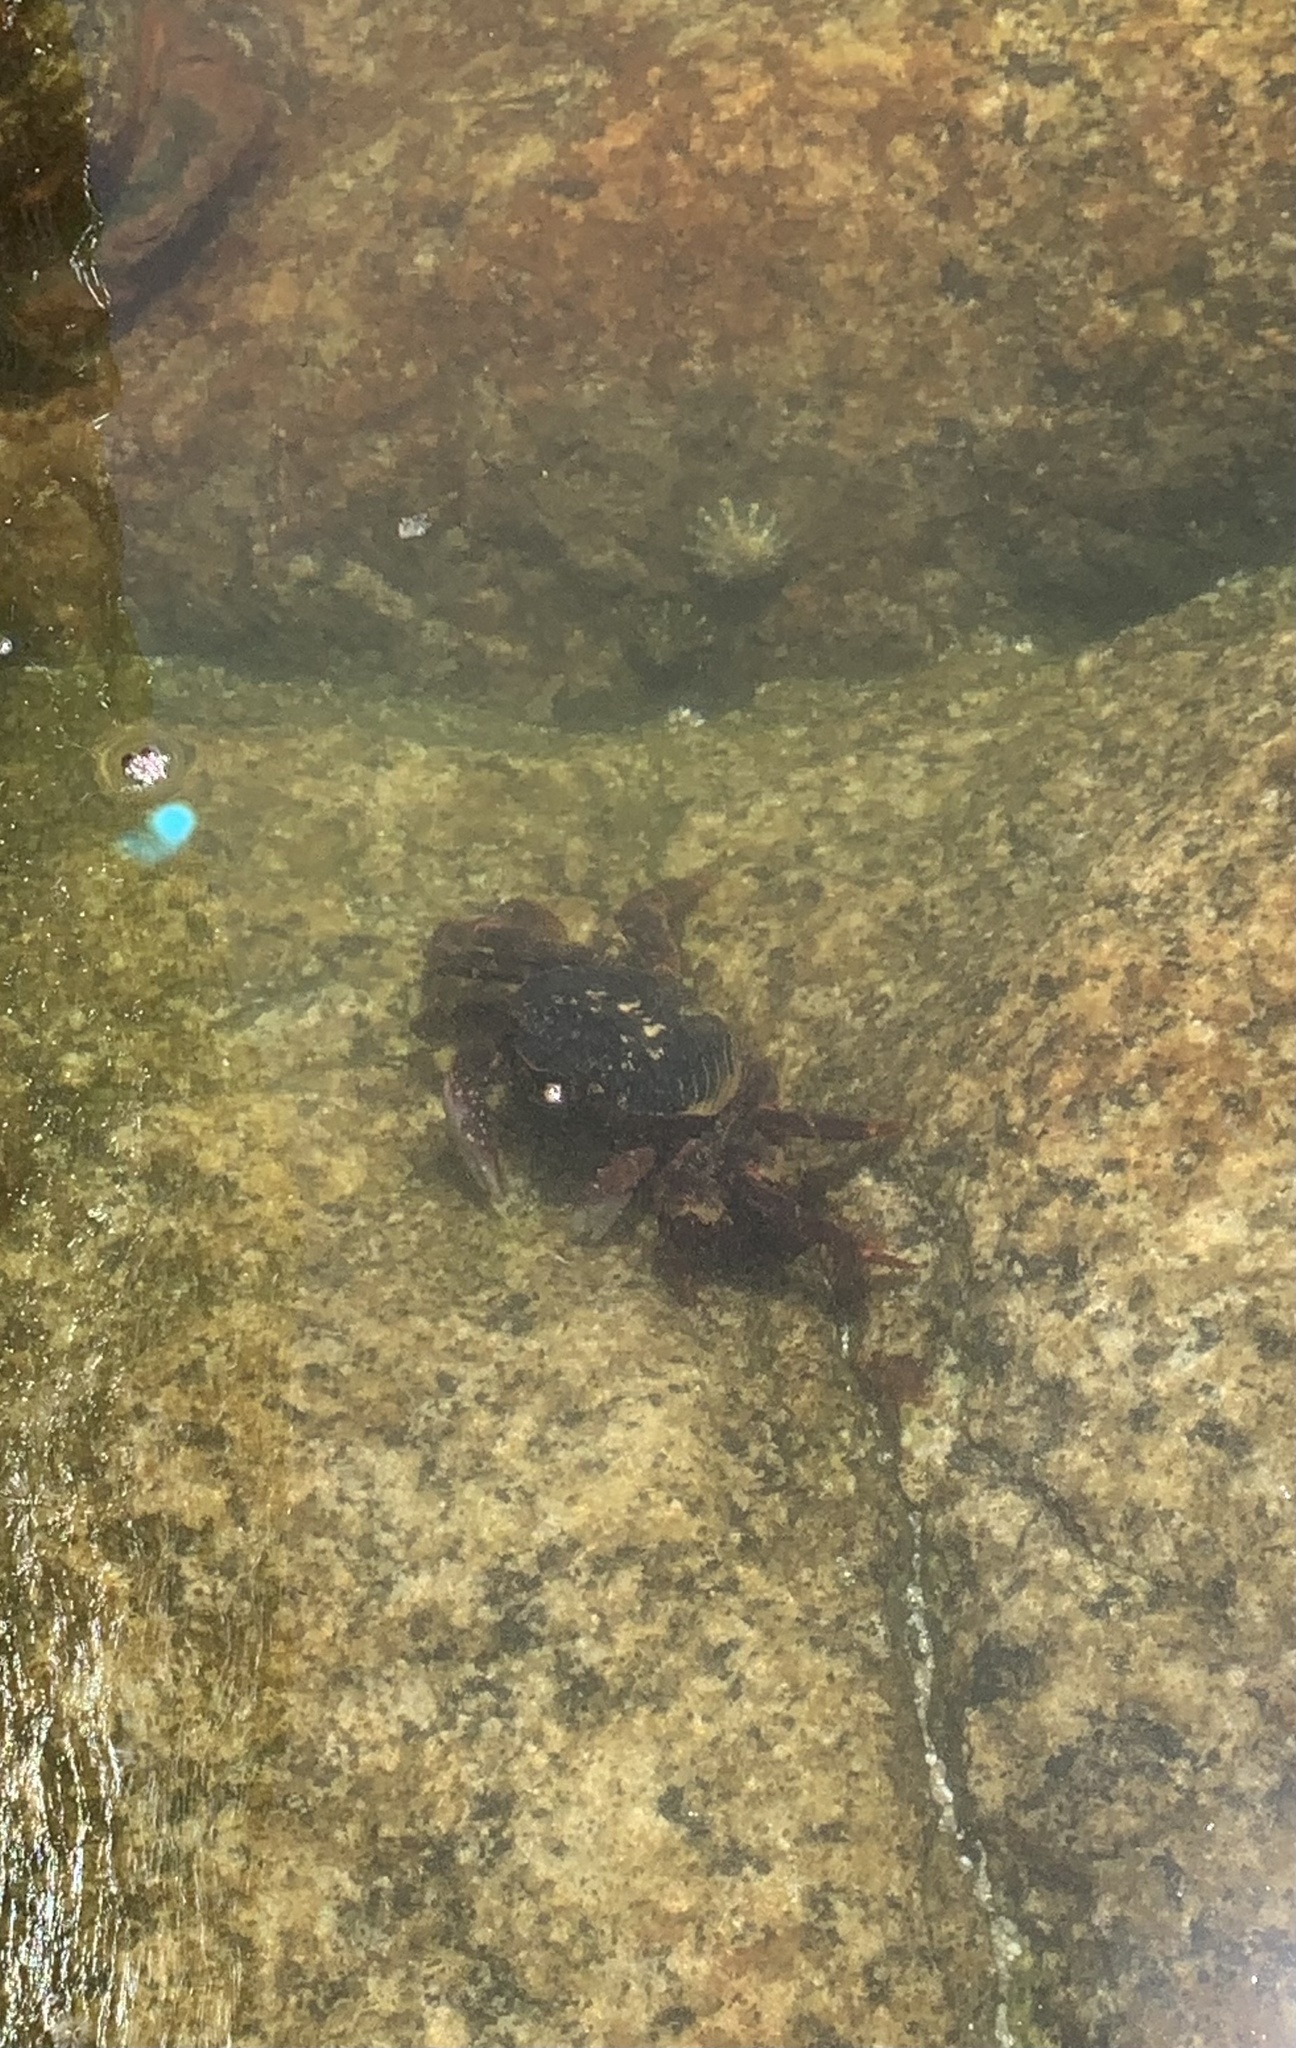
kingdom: Animalia
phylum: Arthropoda
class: Malacostraca
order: Decapoda
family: Grapsidae
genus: Leptograpsus
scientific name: Leptograpsus variegatus
